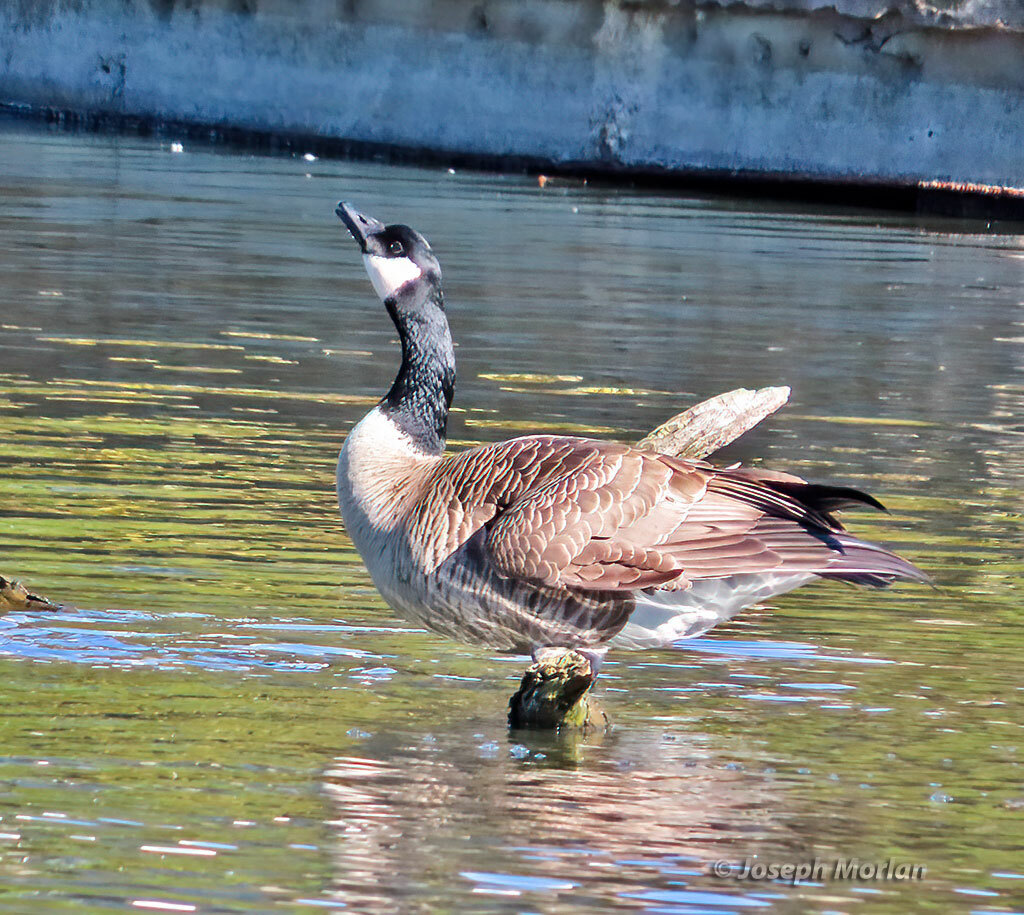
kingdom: Animalia
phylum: Chordata
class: Aves
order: Anseriformes
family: Anatidae
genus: Branta
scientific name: Branta canadensis
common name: Canada goose
